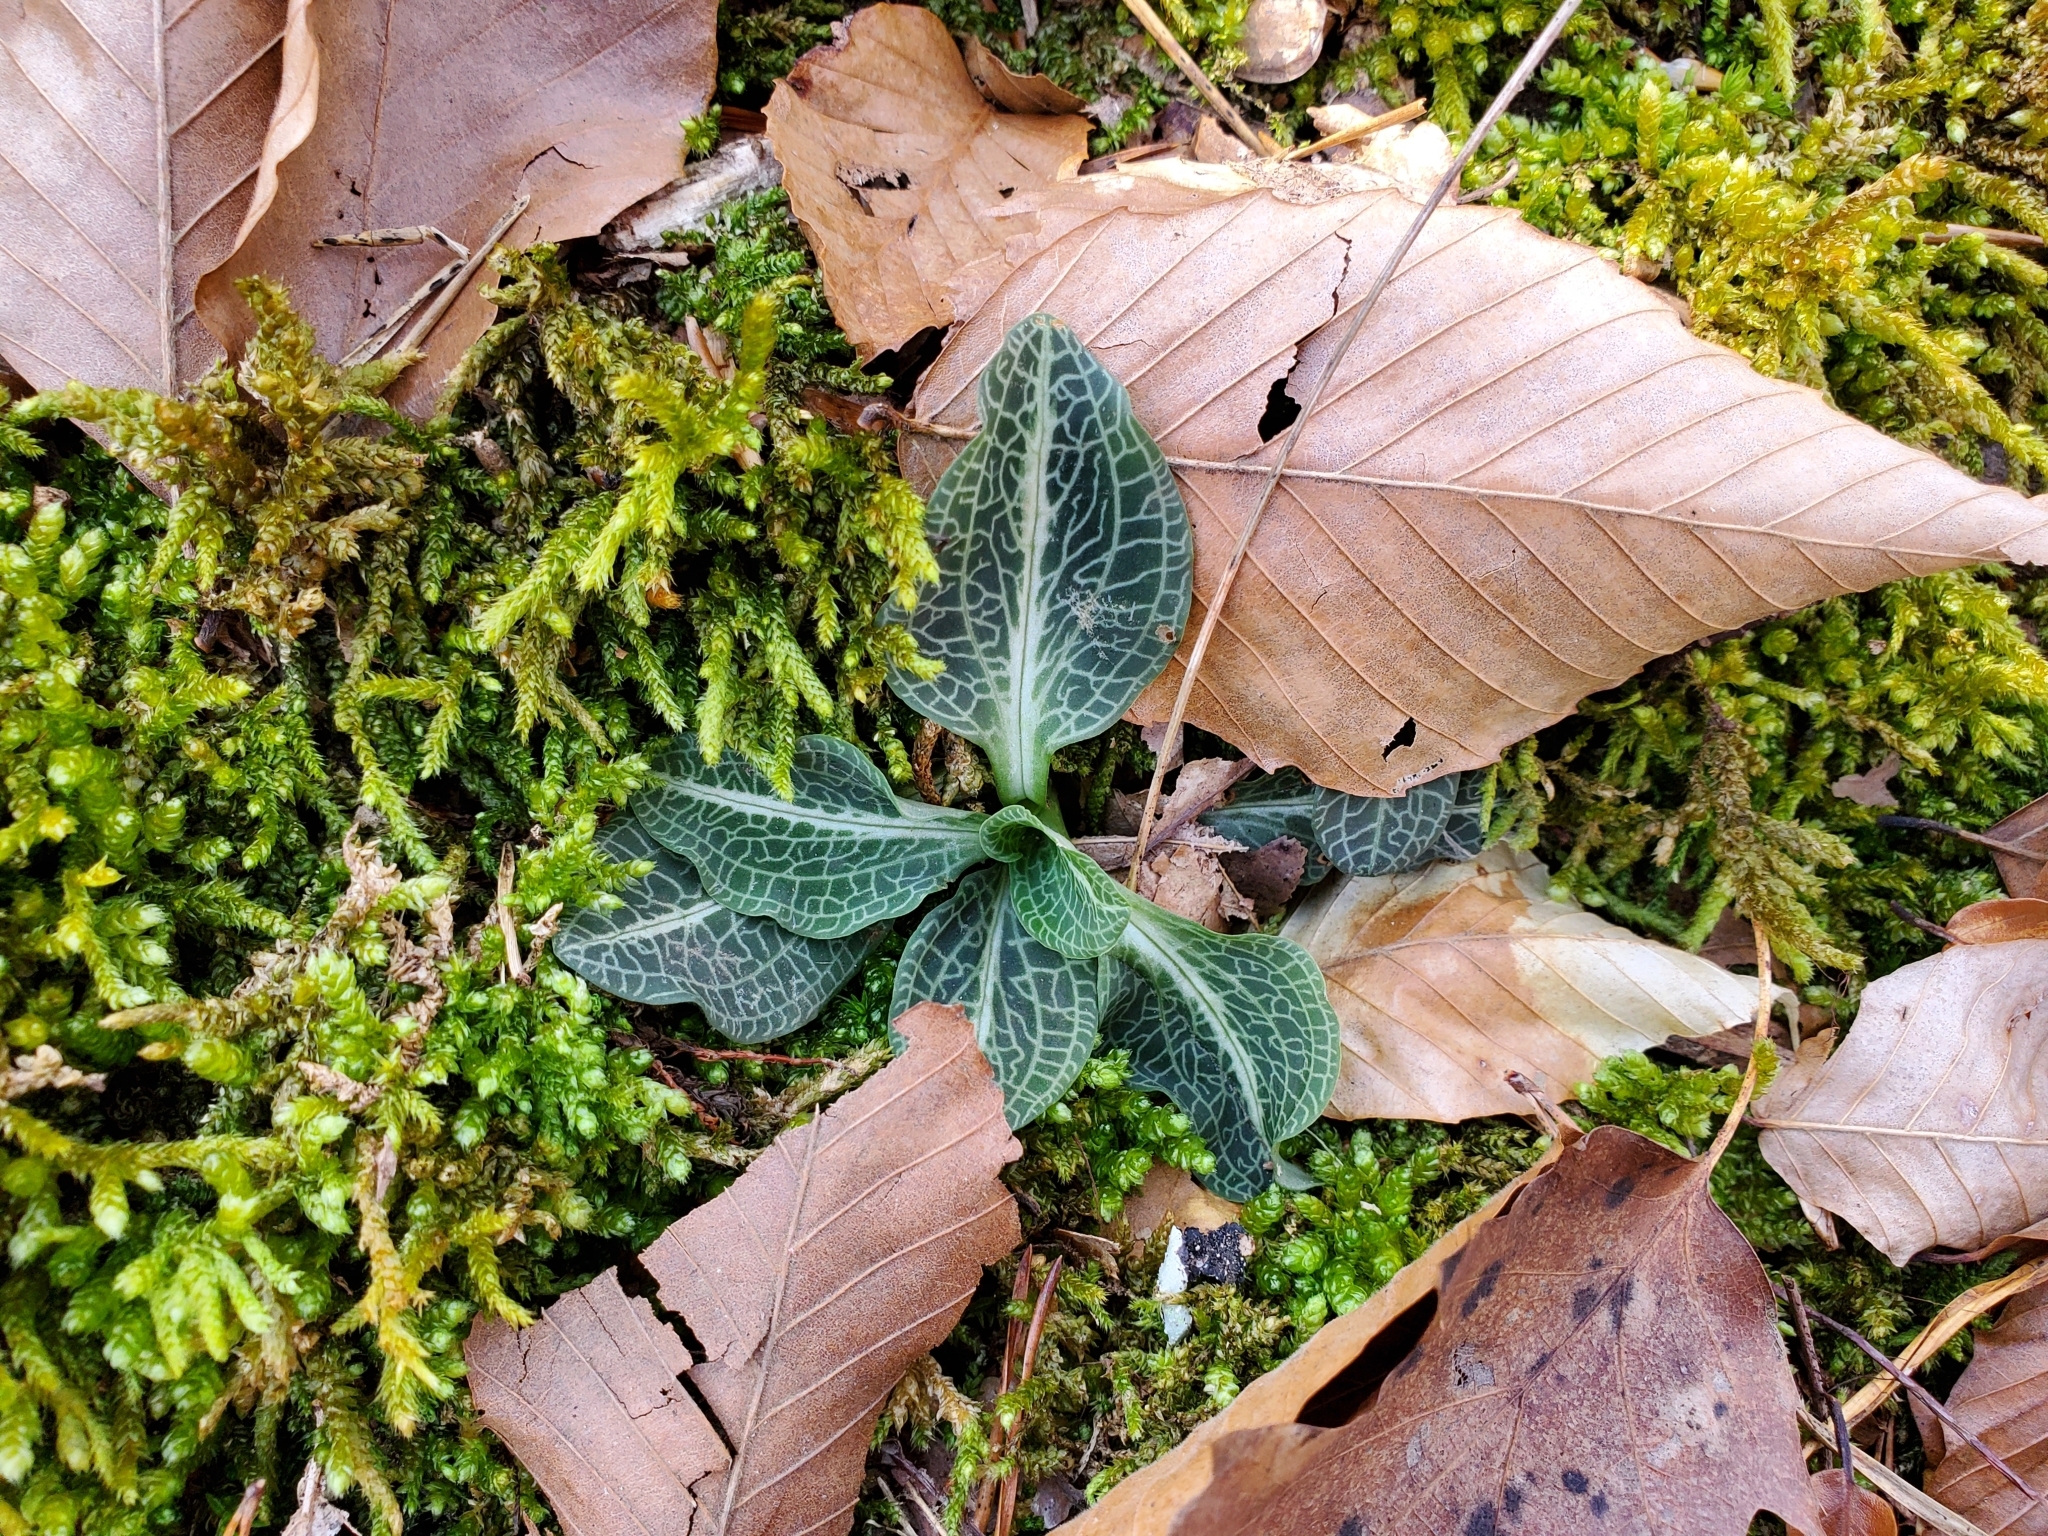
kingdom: Plantae
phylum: Tracheophyta
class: Liliopsida
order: Asparagales
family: Orchidaceae
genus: Goodyera
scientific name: Goodyera pubescens
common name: Downy rattlesnake-plantain
